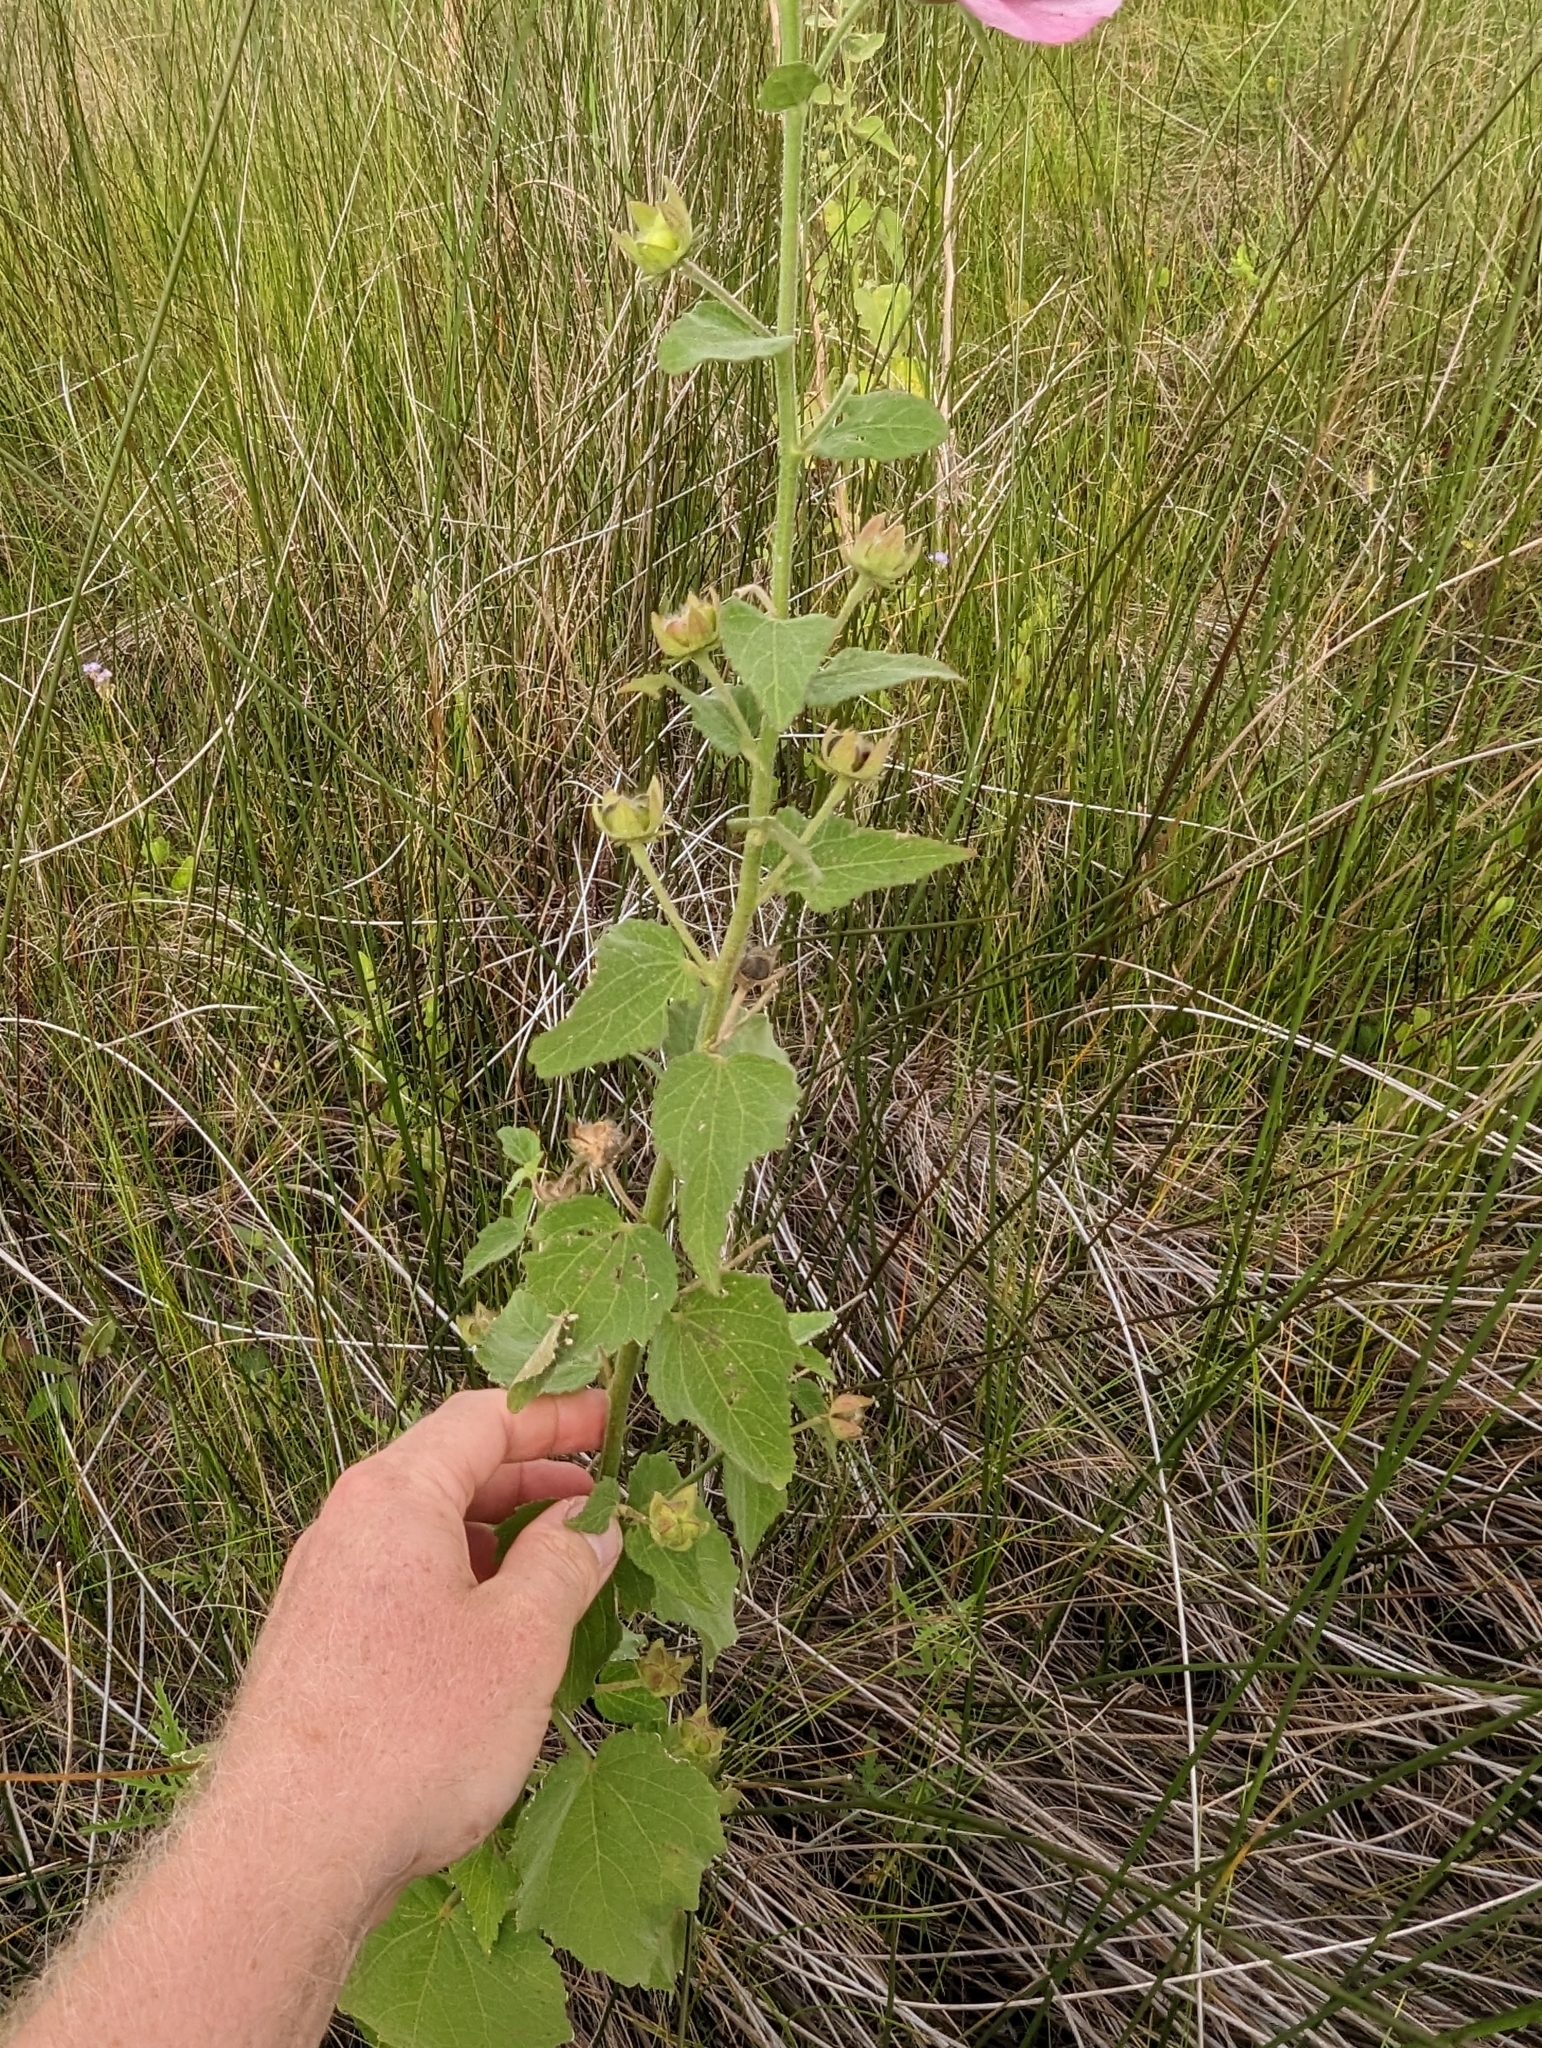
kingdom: Plantae
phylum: Tracheophyta
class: Magnoliopsida
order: Malvales
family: Malvaceae
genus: Kosteletzkya
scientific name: Kosteletzkya pentacarpos
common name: Virginia saltmarsh mallow
